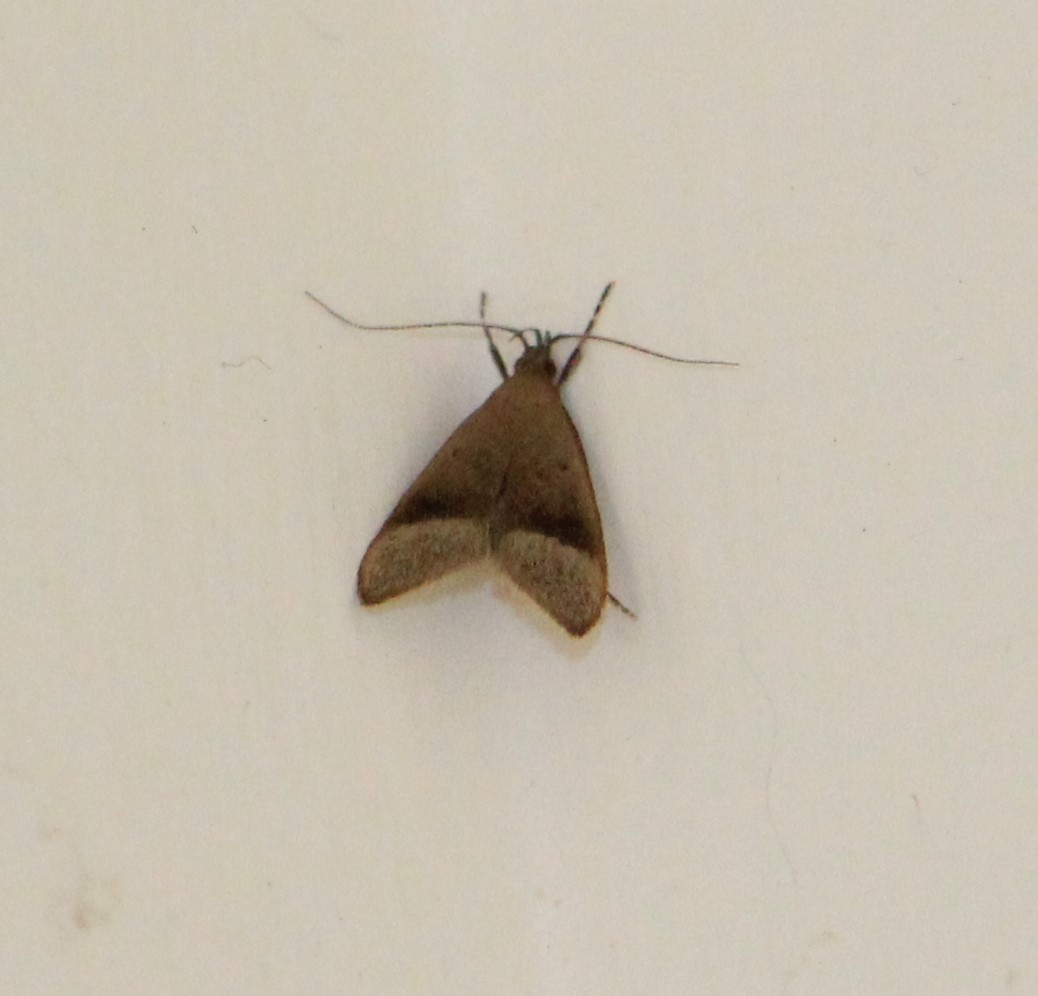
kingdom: Animalia
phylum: Arthropoda
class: Insecta
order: Lepidoptera
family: Oecophoridae
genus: Gymnobathra
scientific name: Gymnobathra hyetodes
